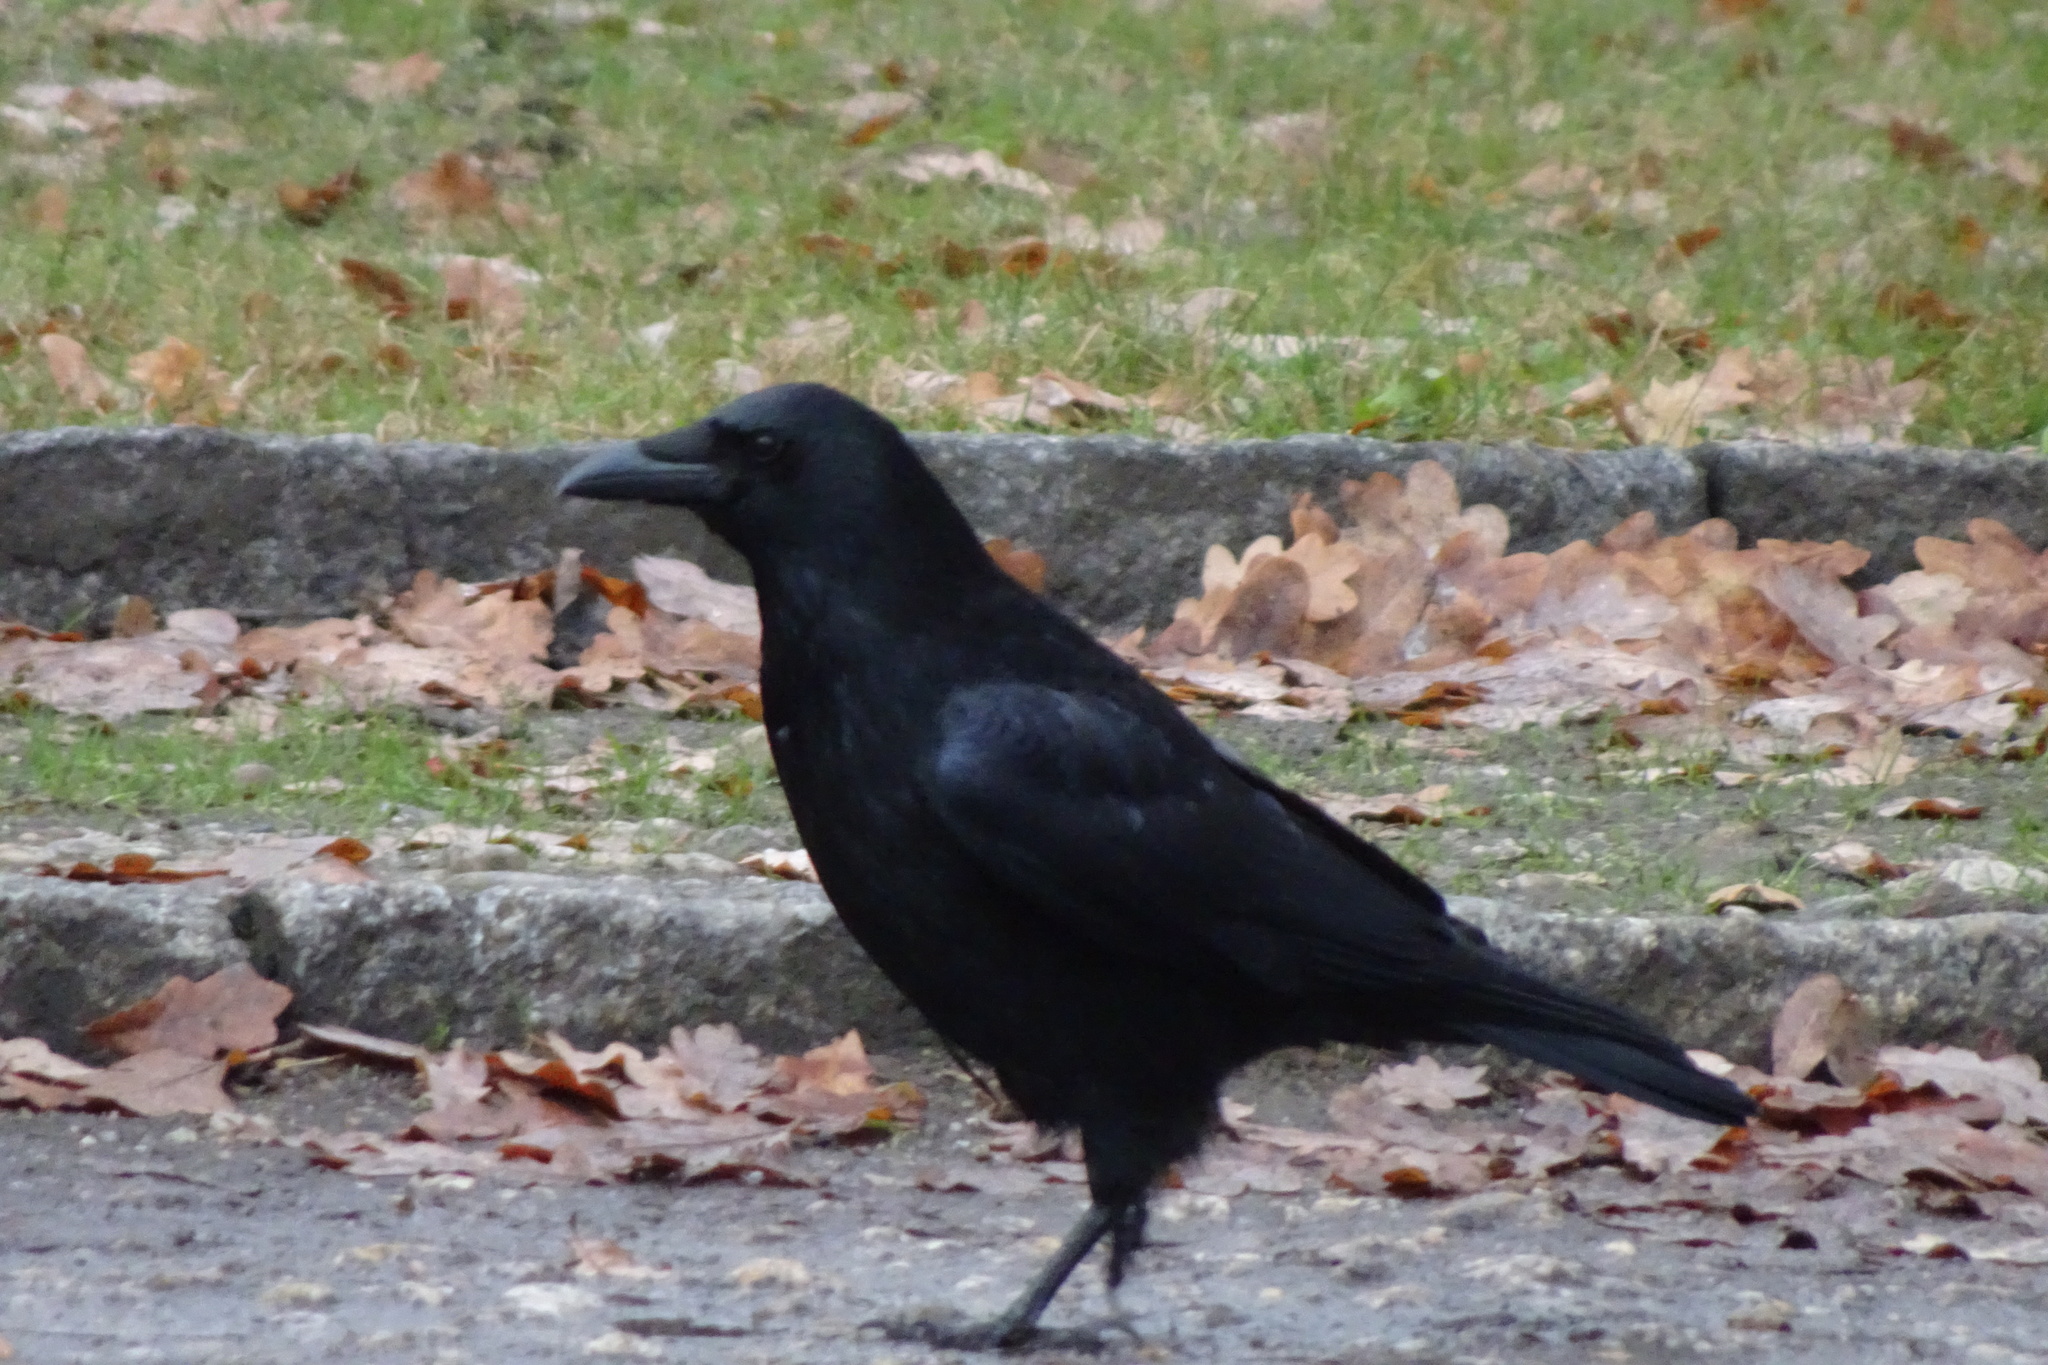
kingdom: Animalia
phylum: Chordata
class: Aves
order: Passeriformes
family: Corvidae
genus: Corvus
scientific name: Corvus corone
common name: Carrion crow
